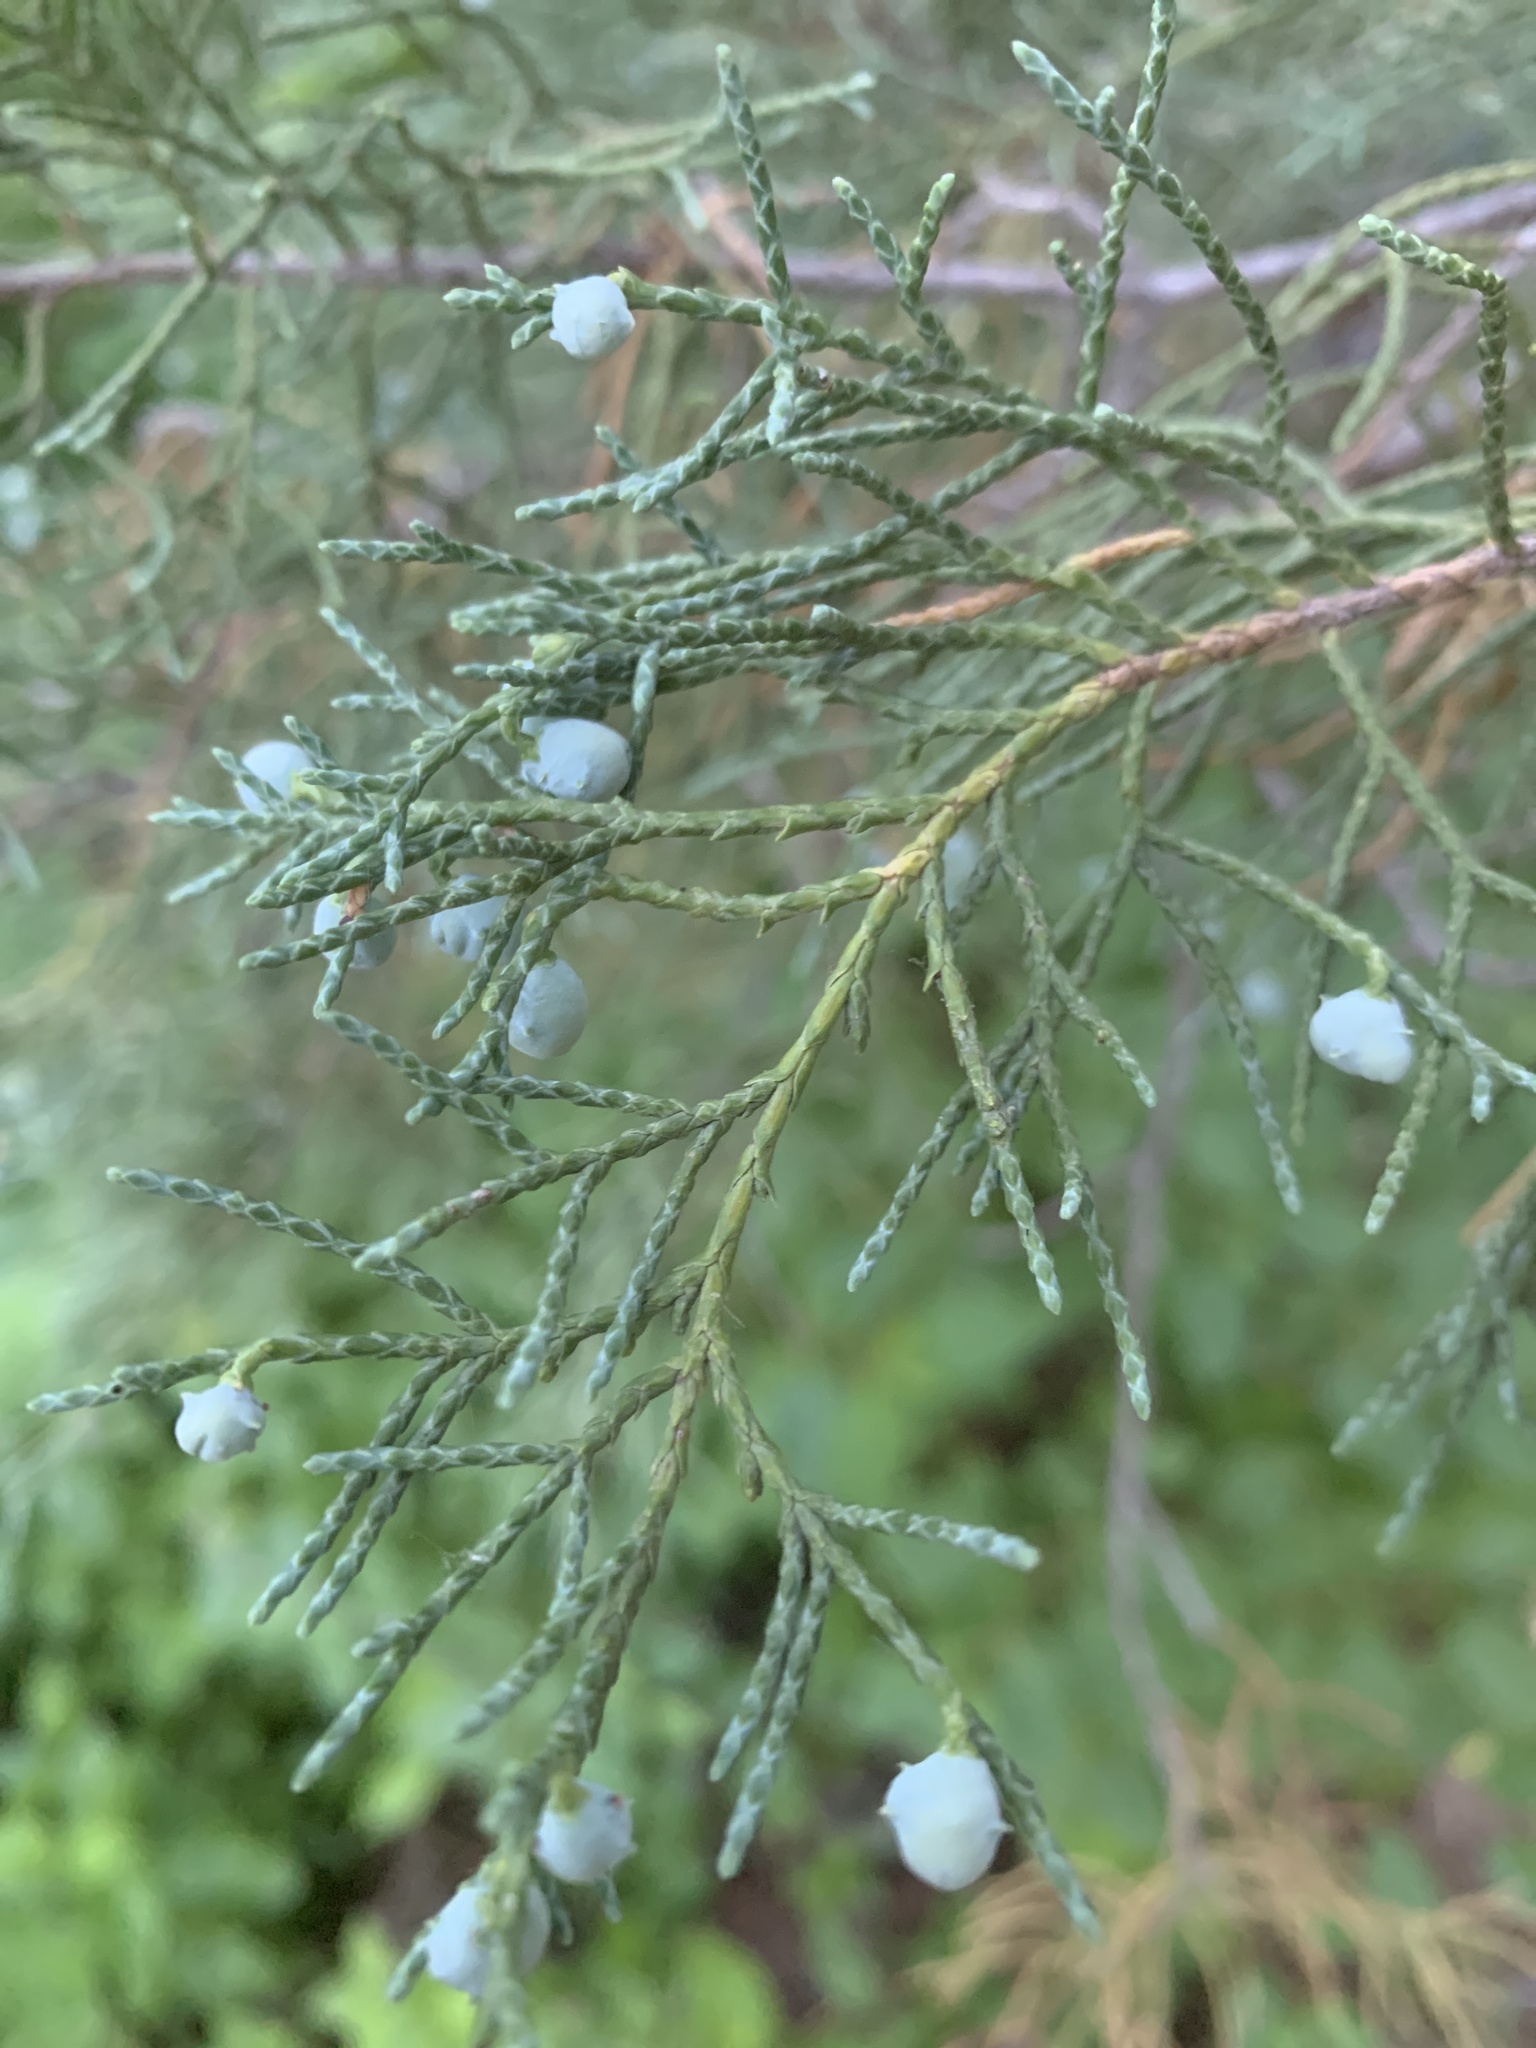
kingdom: Plantae
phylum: Tracheophyta
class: Pinopsida
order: Pinales
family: Cupressaceae
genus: Juniperus
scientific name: Juniperus scopulorum
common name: Rocky mountain juniper
